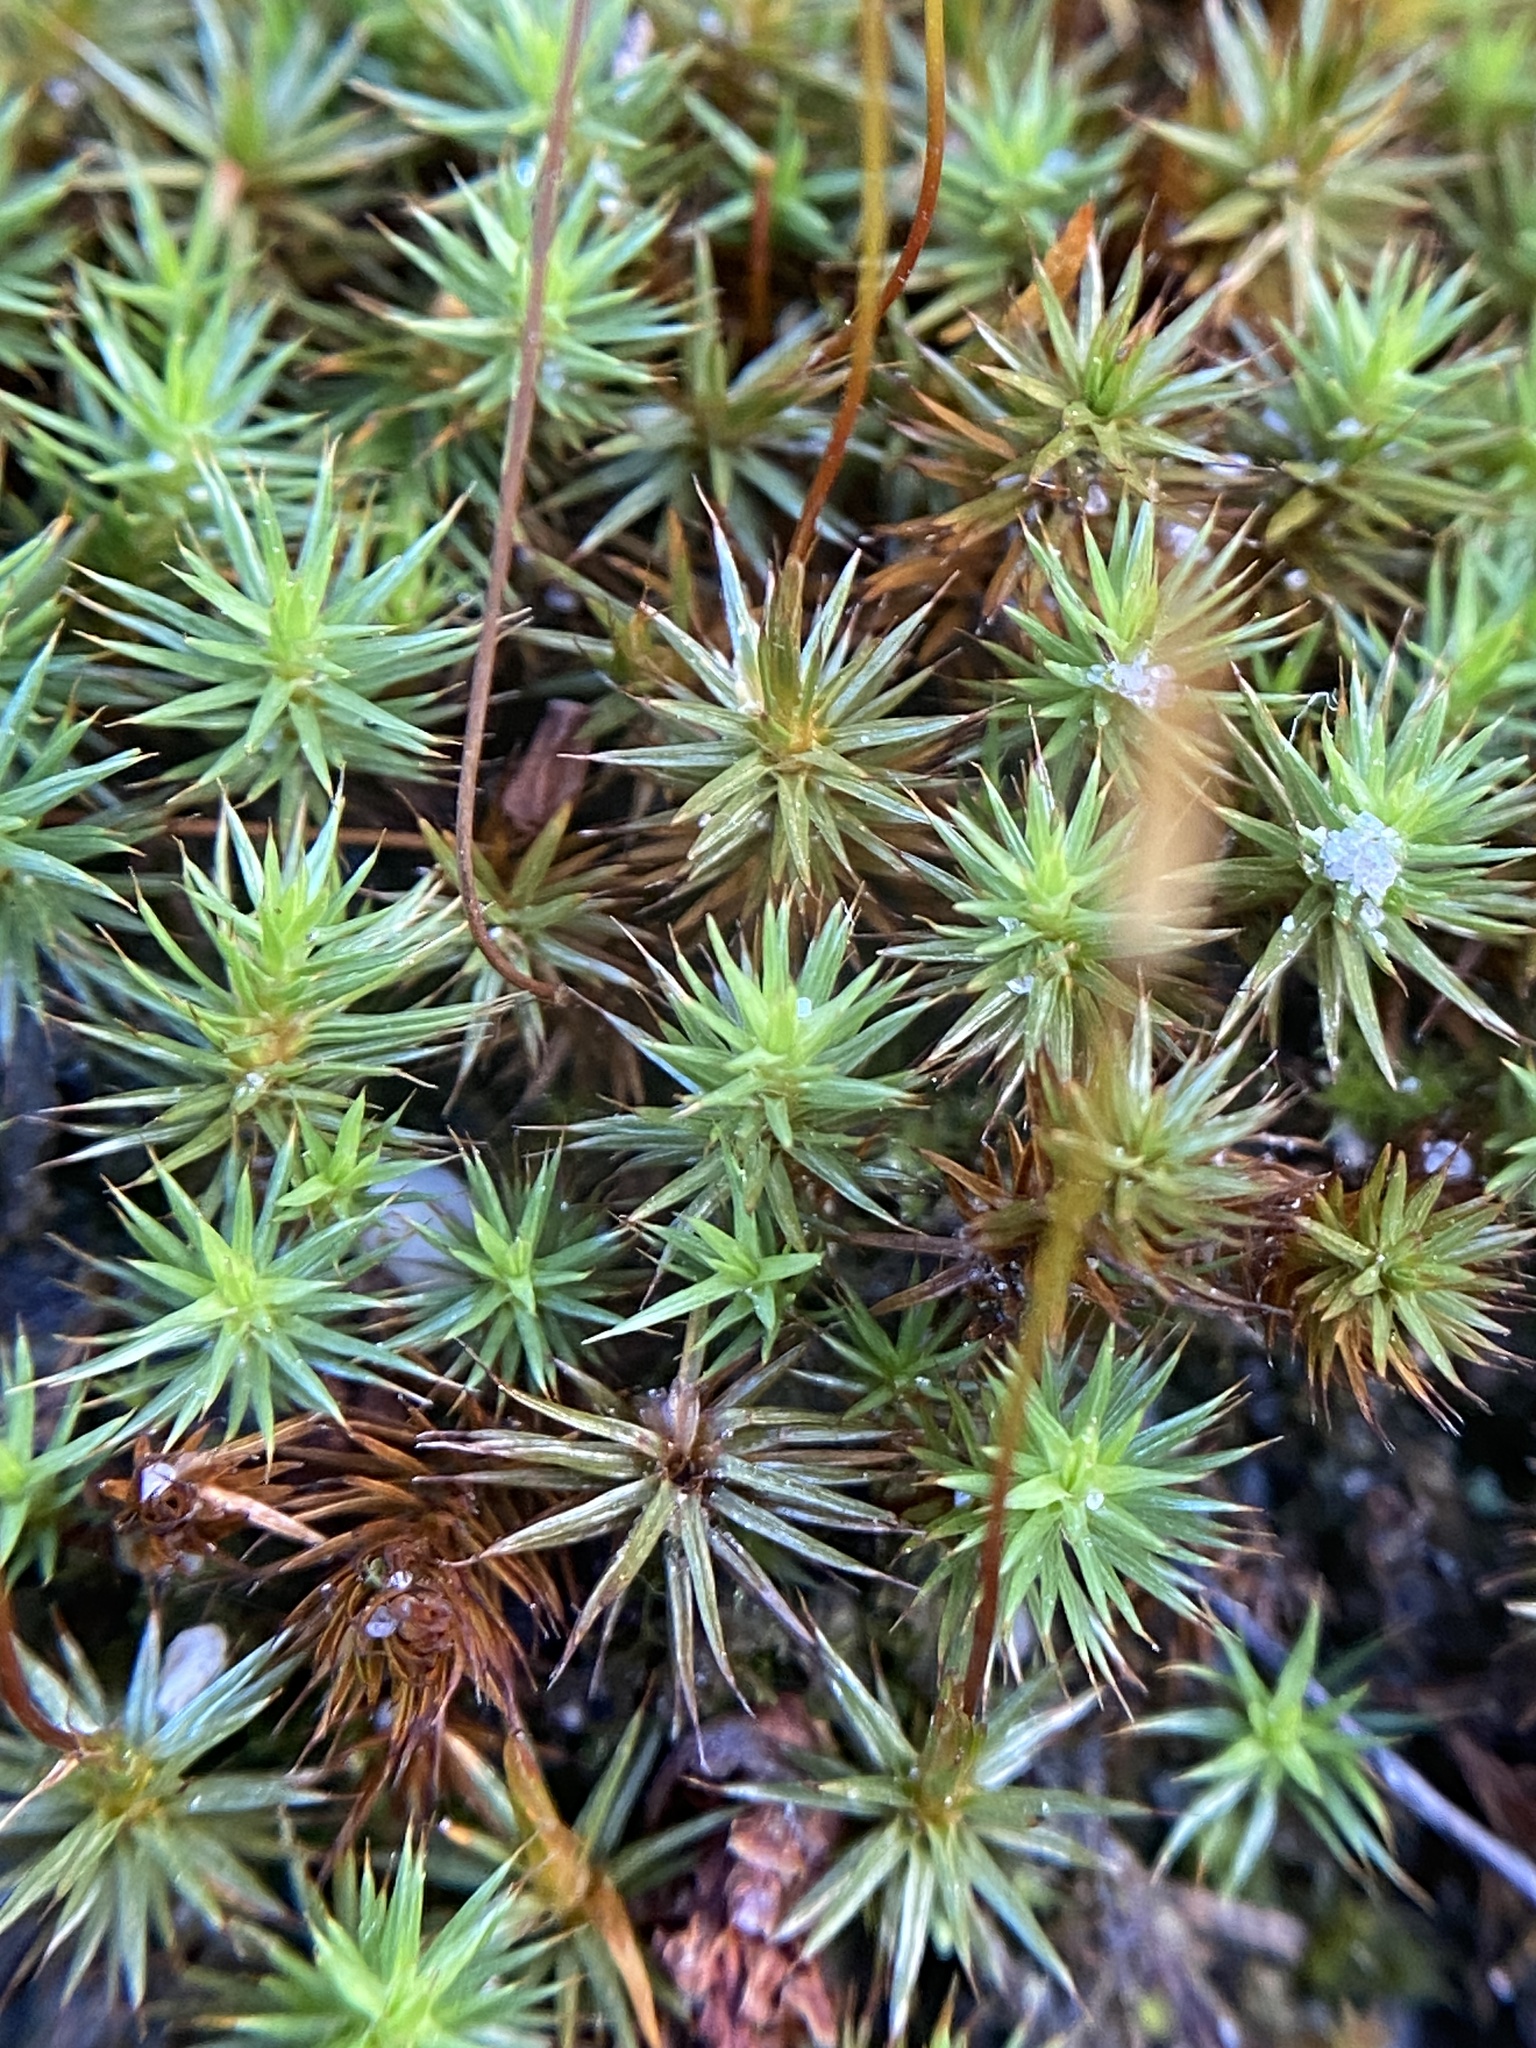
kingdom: Plantae
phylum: Bryophyta
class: Polytrichopsida
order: Polytrichales
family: Polytrichaceae
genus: Polytrichum
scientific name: Polytrichum juniperinum
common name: Juniper haircap moss
